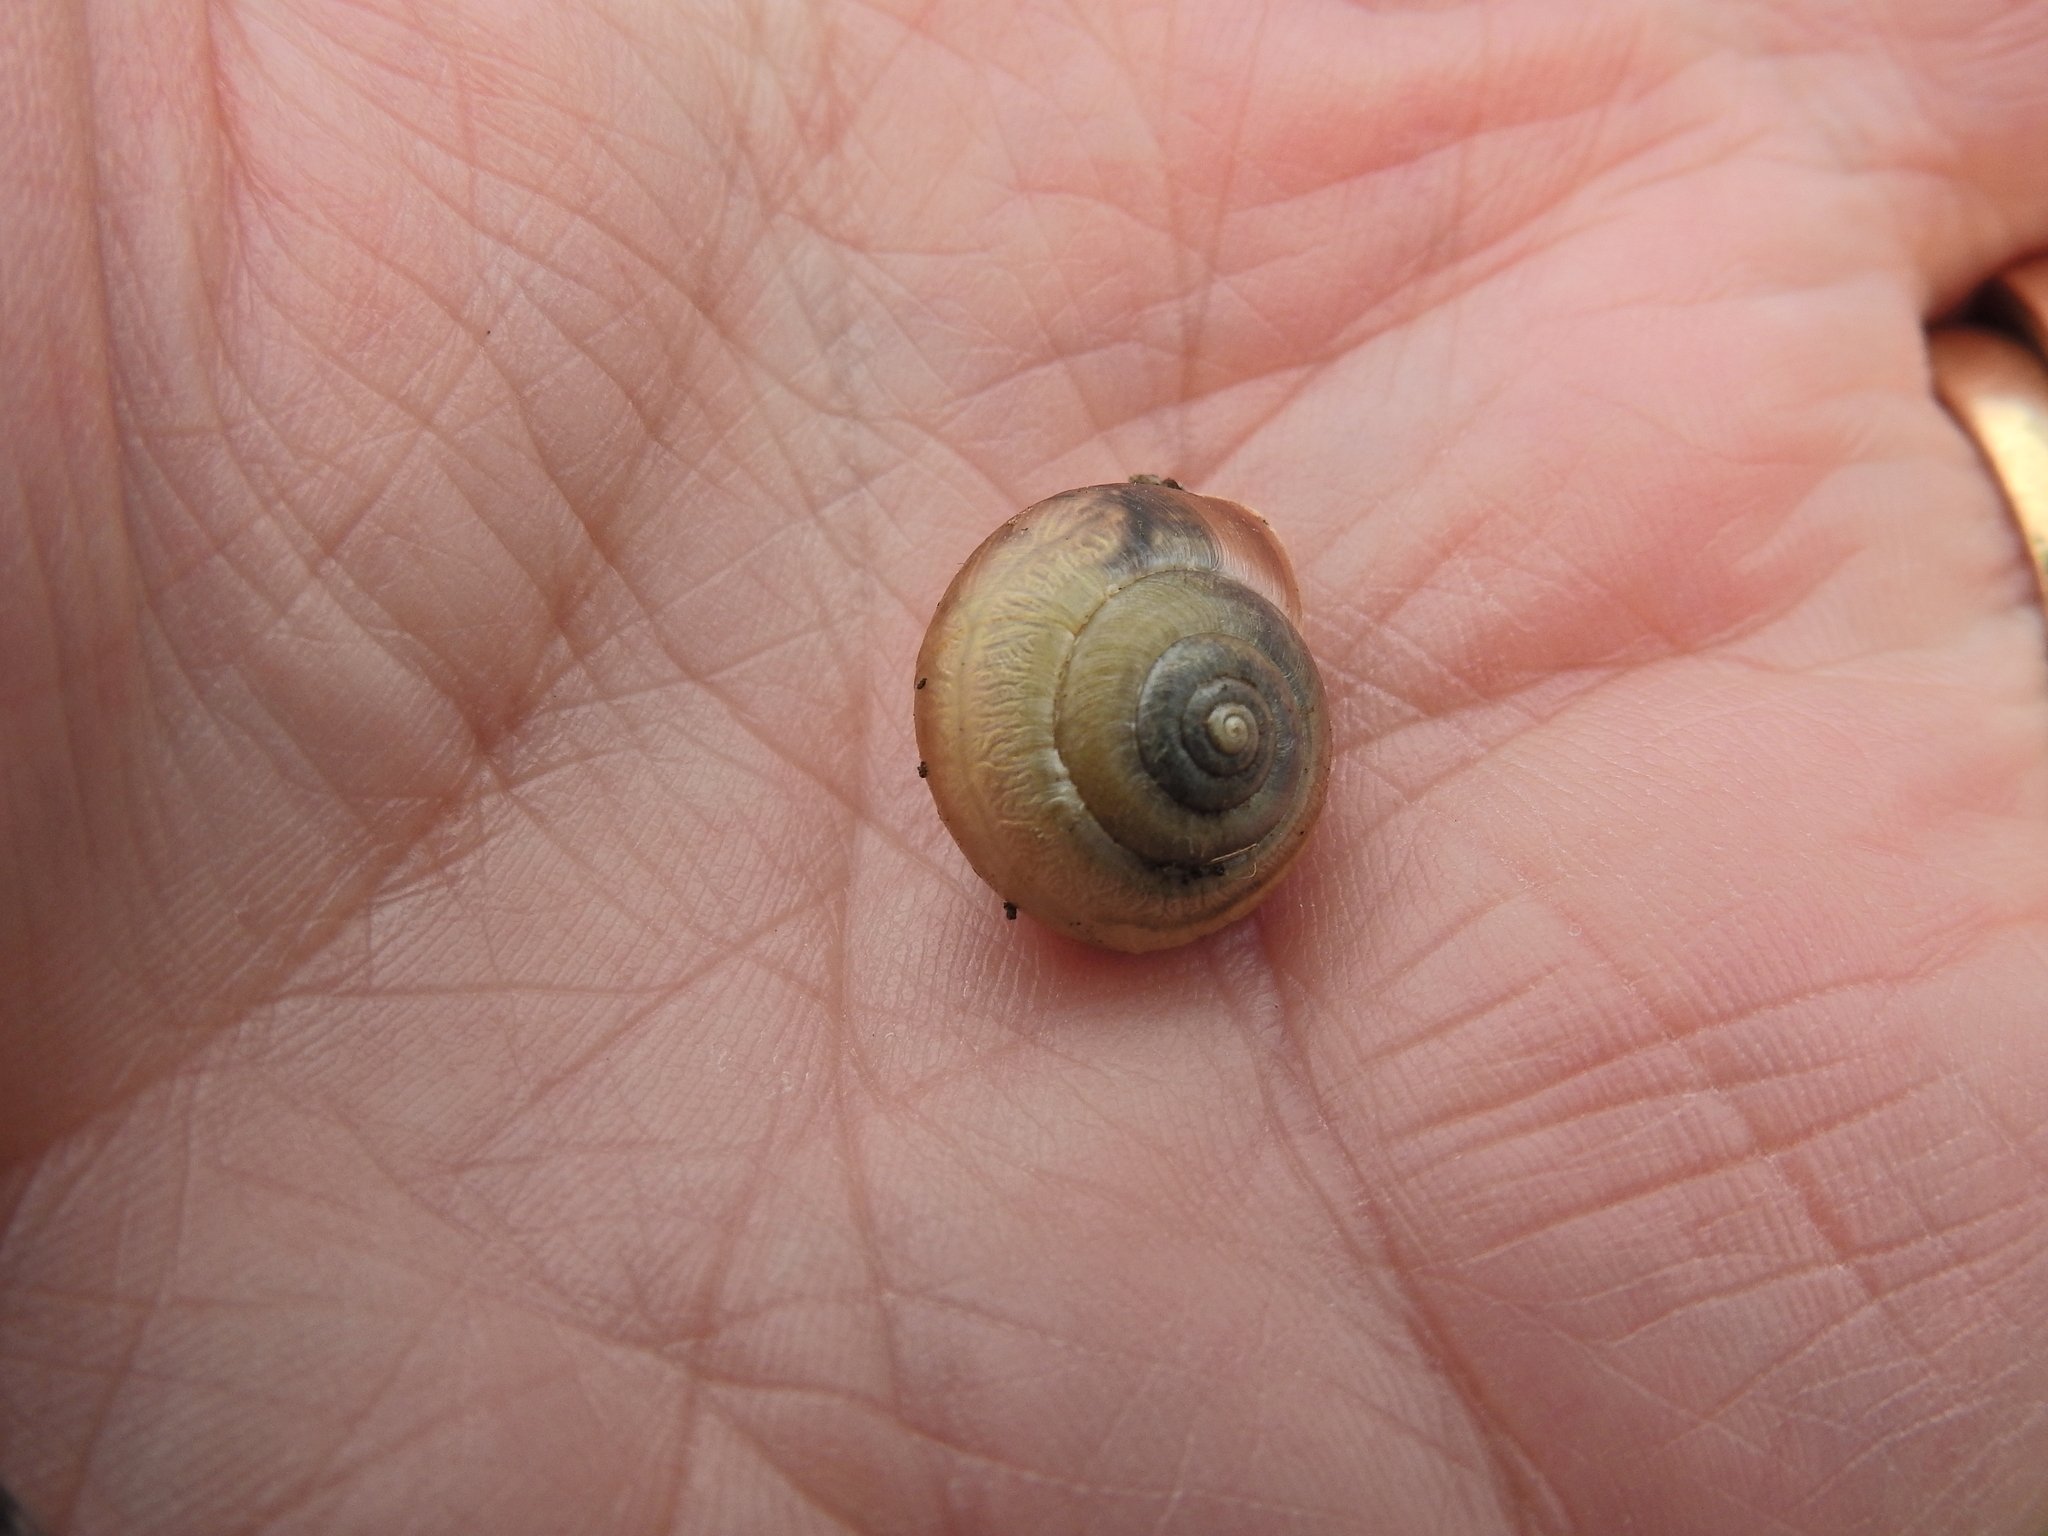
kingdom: Animalia
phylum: Mollusca
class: Gastropoda
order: Stylommatophora
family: Hygromiidae
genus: Monacha
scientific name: Monacha cantiana
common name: Kentish snail
